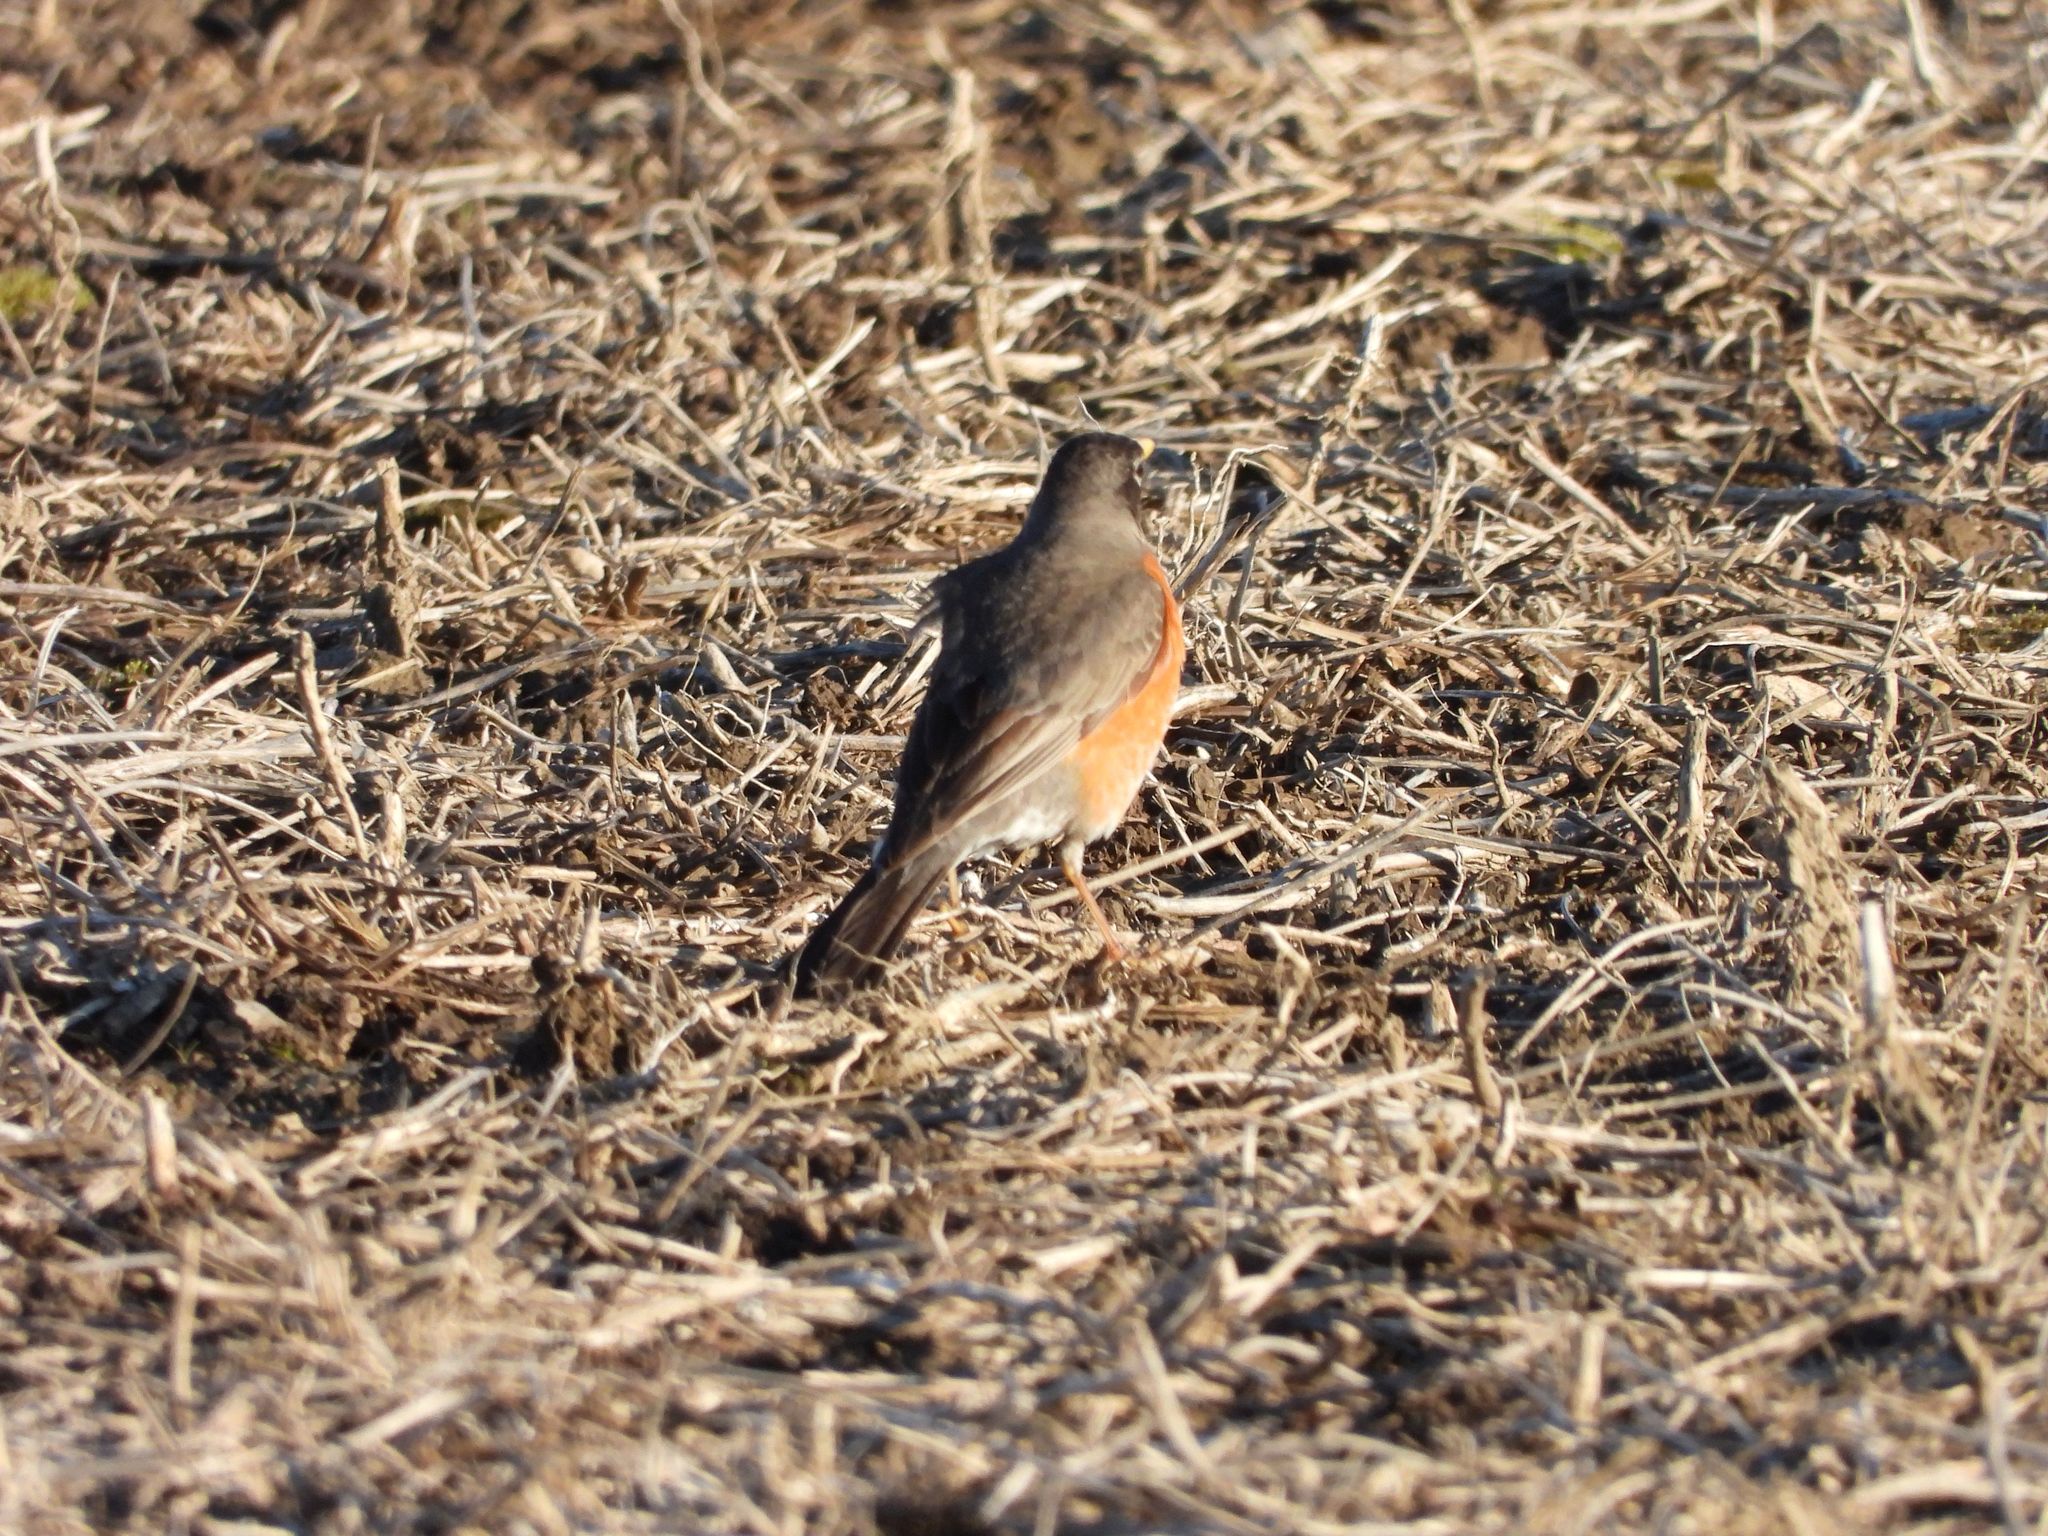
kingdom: Animalia
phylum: Chordata
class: Aves
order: Passeriformes
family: Turdidae
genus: Turdus
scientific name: Turdus migratorius
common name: American robin
